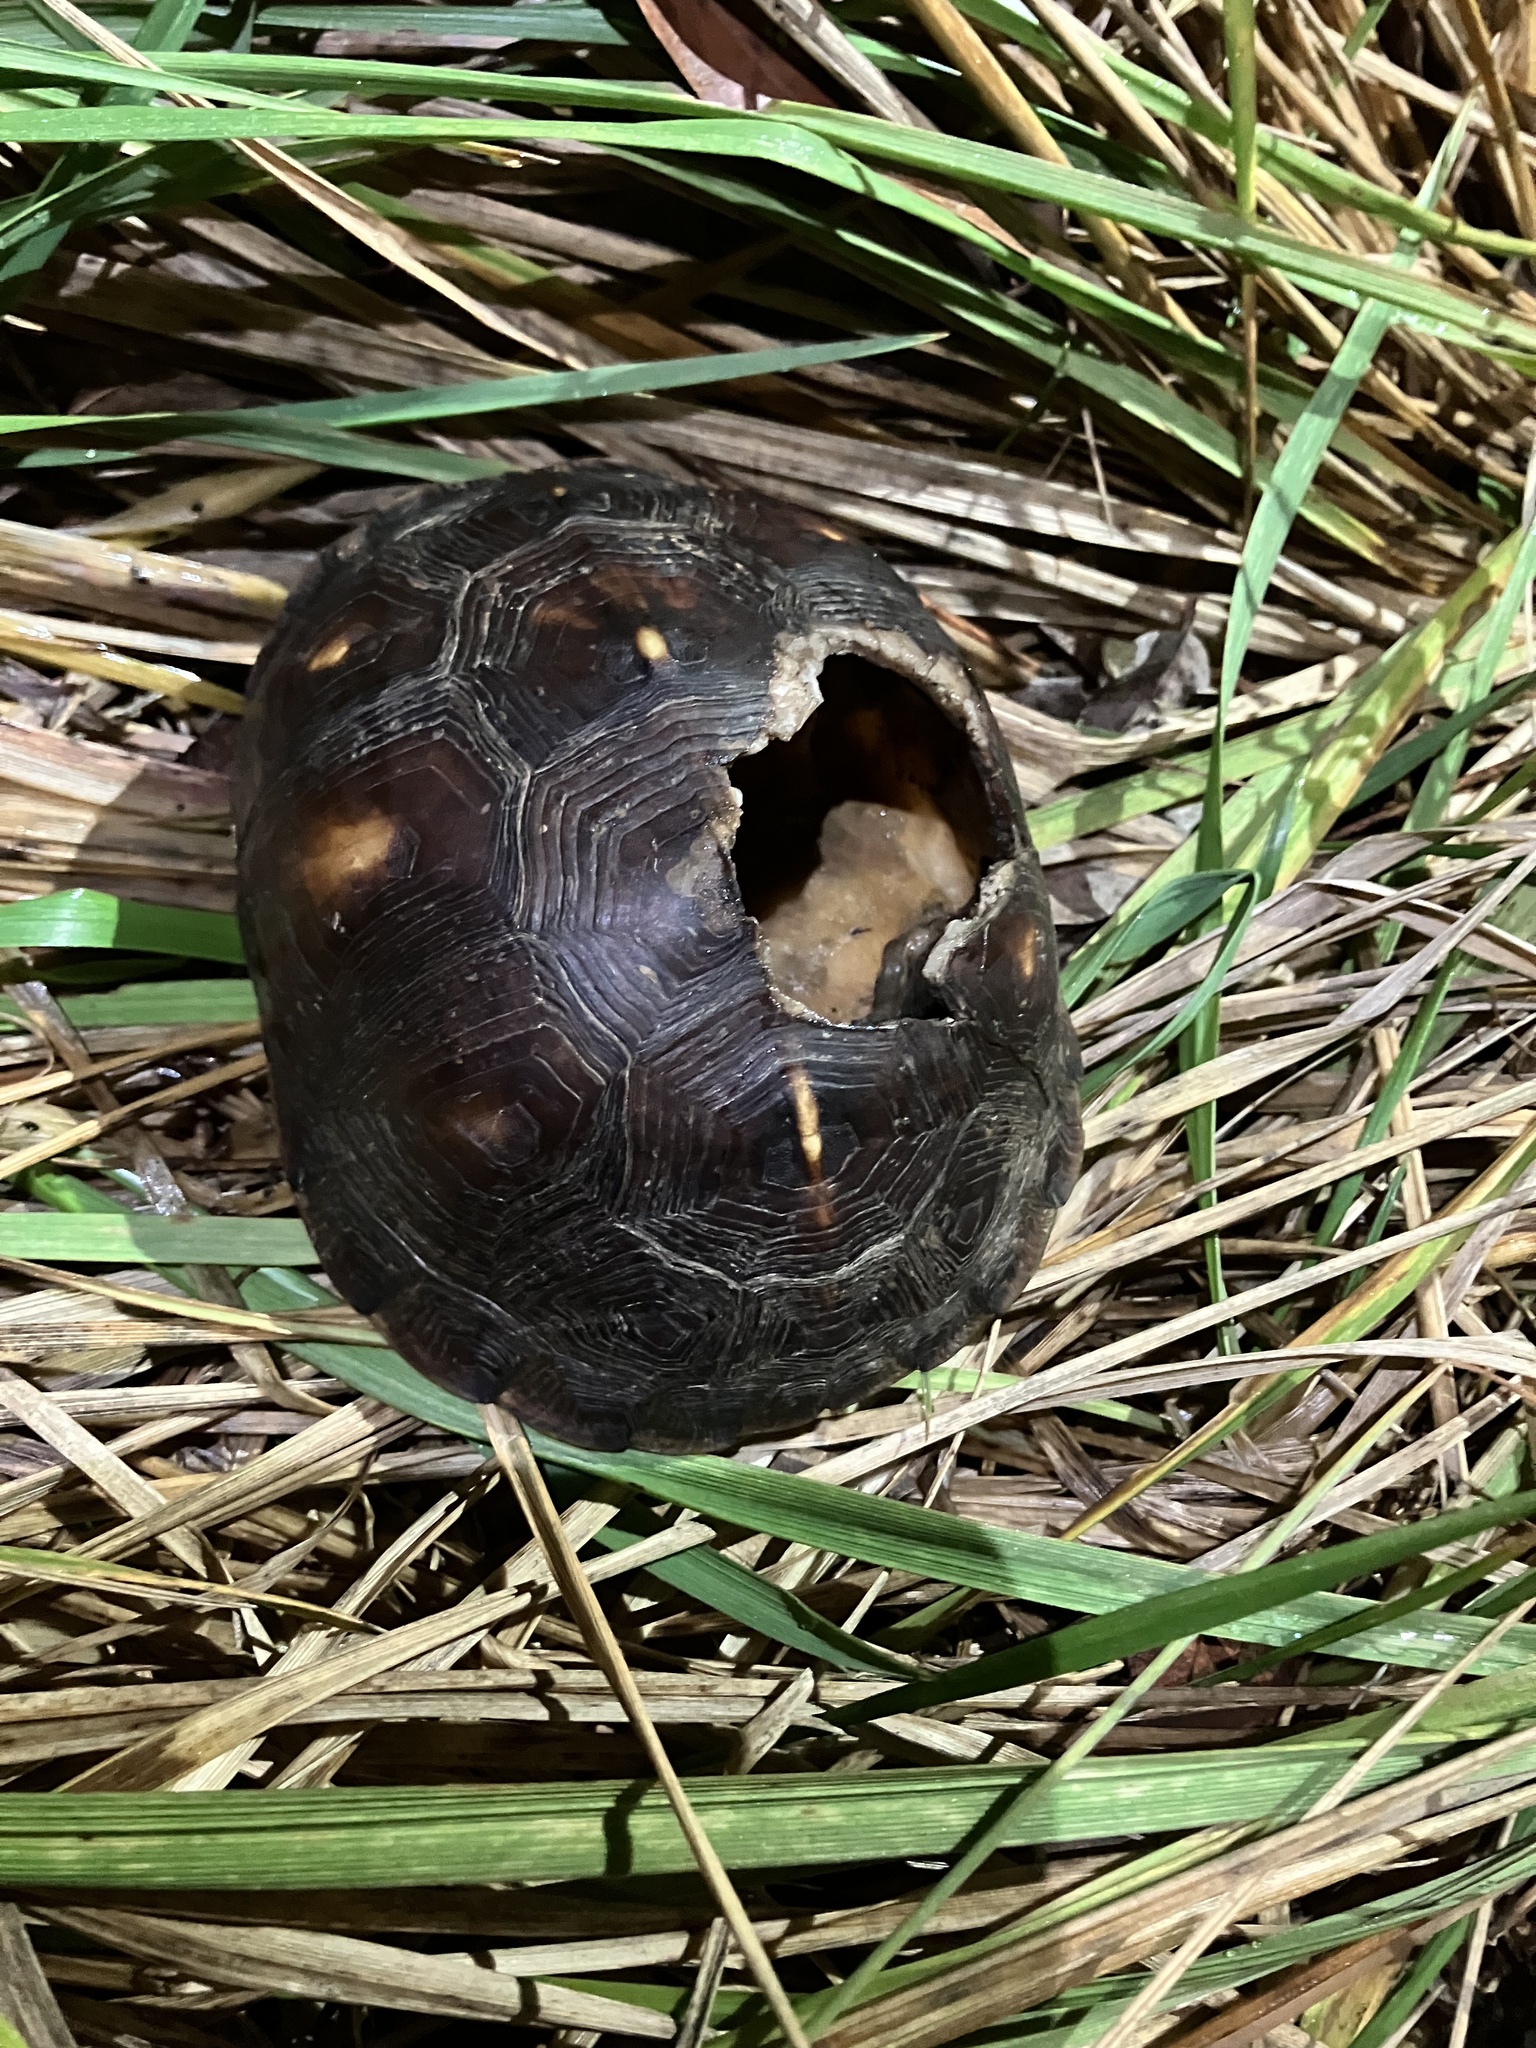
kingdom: Animalia
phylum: Chordata
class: Testudines
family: Emydidae
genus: Terrapene
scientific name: Terrapene carolina
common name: Common box turtle
